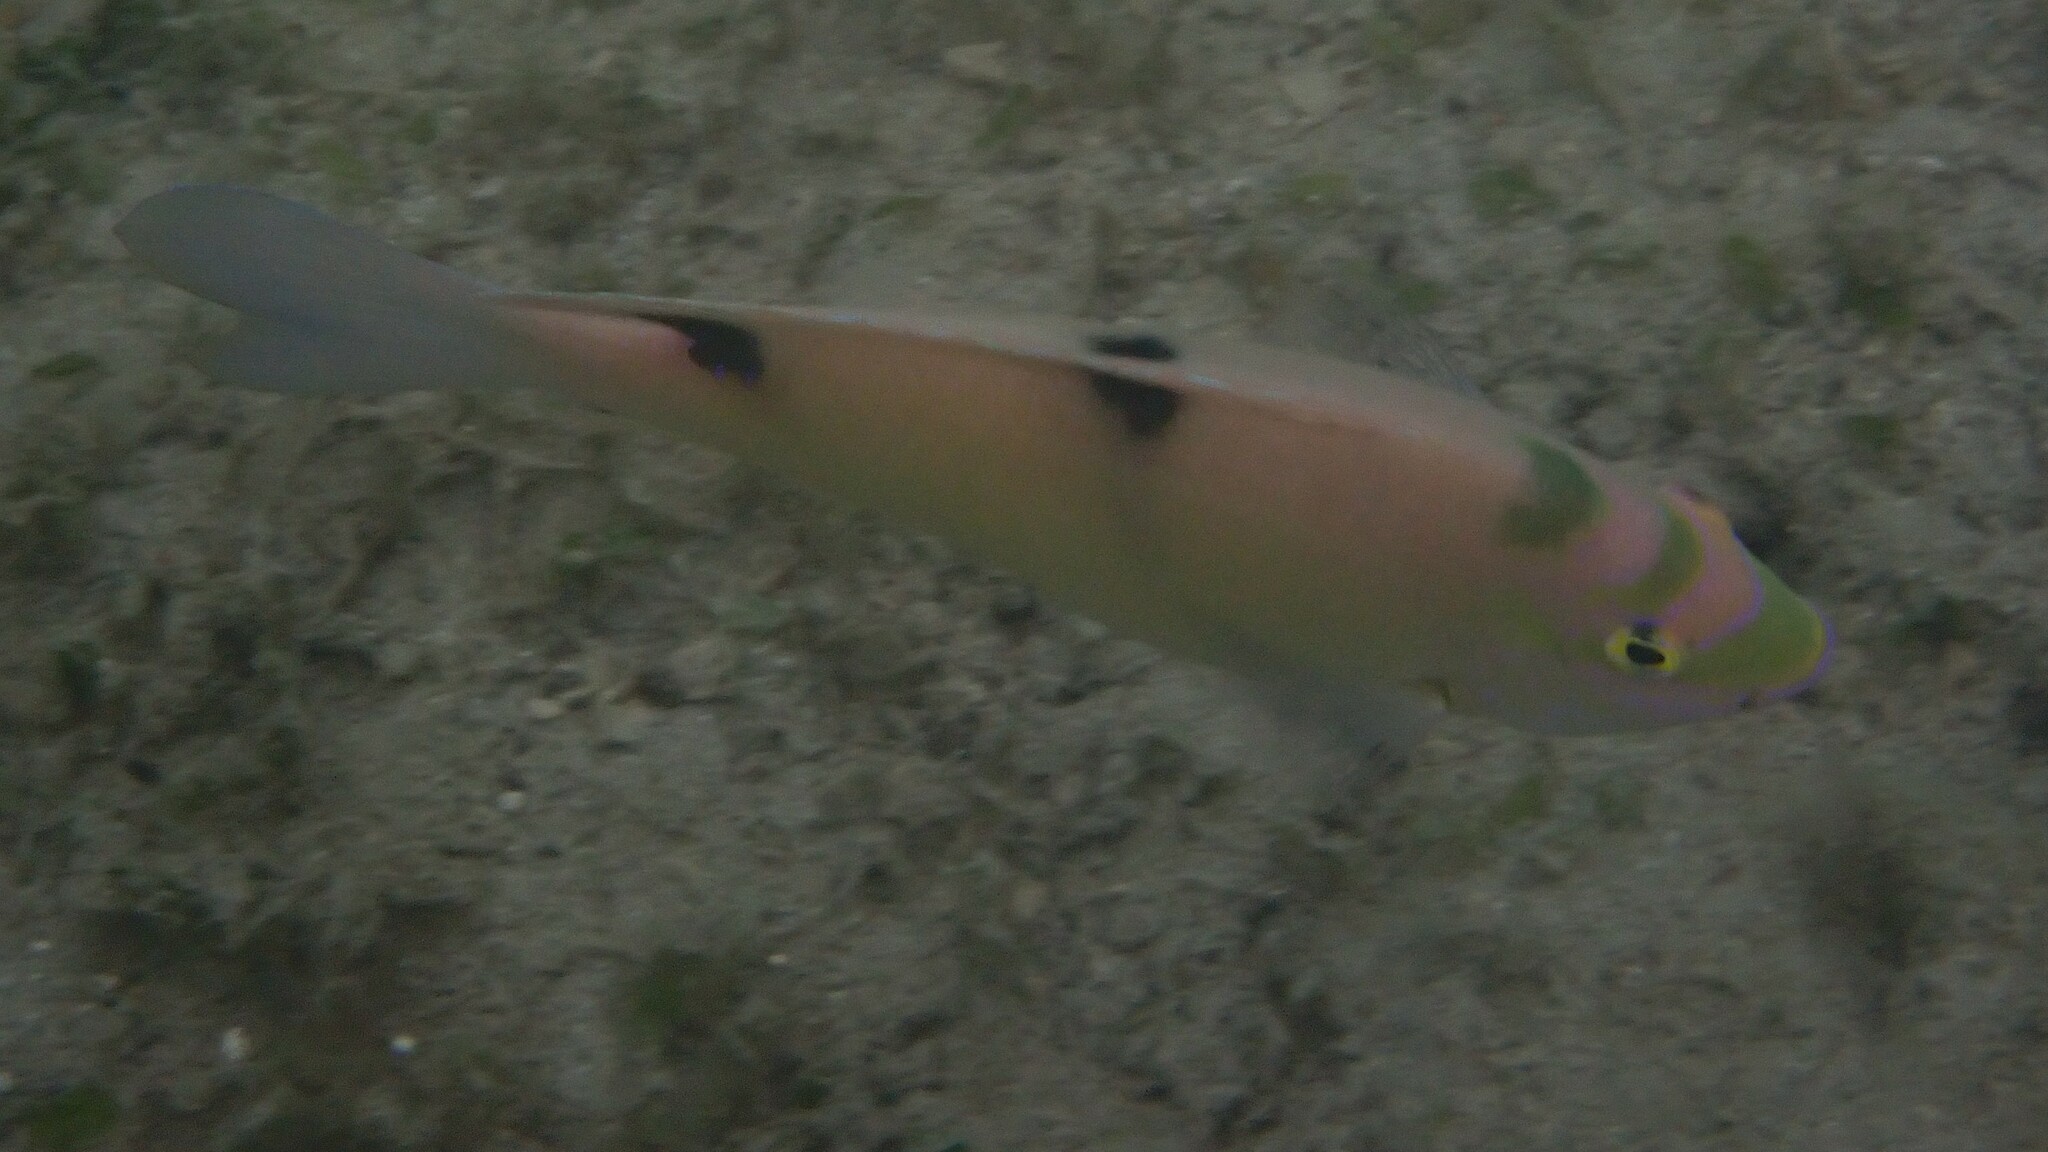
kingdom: Animalia
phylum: Chordata
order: Perciformes
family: Pomacentridae
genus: Dischistodus
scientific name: Dischistodus perspicillatus
